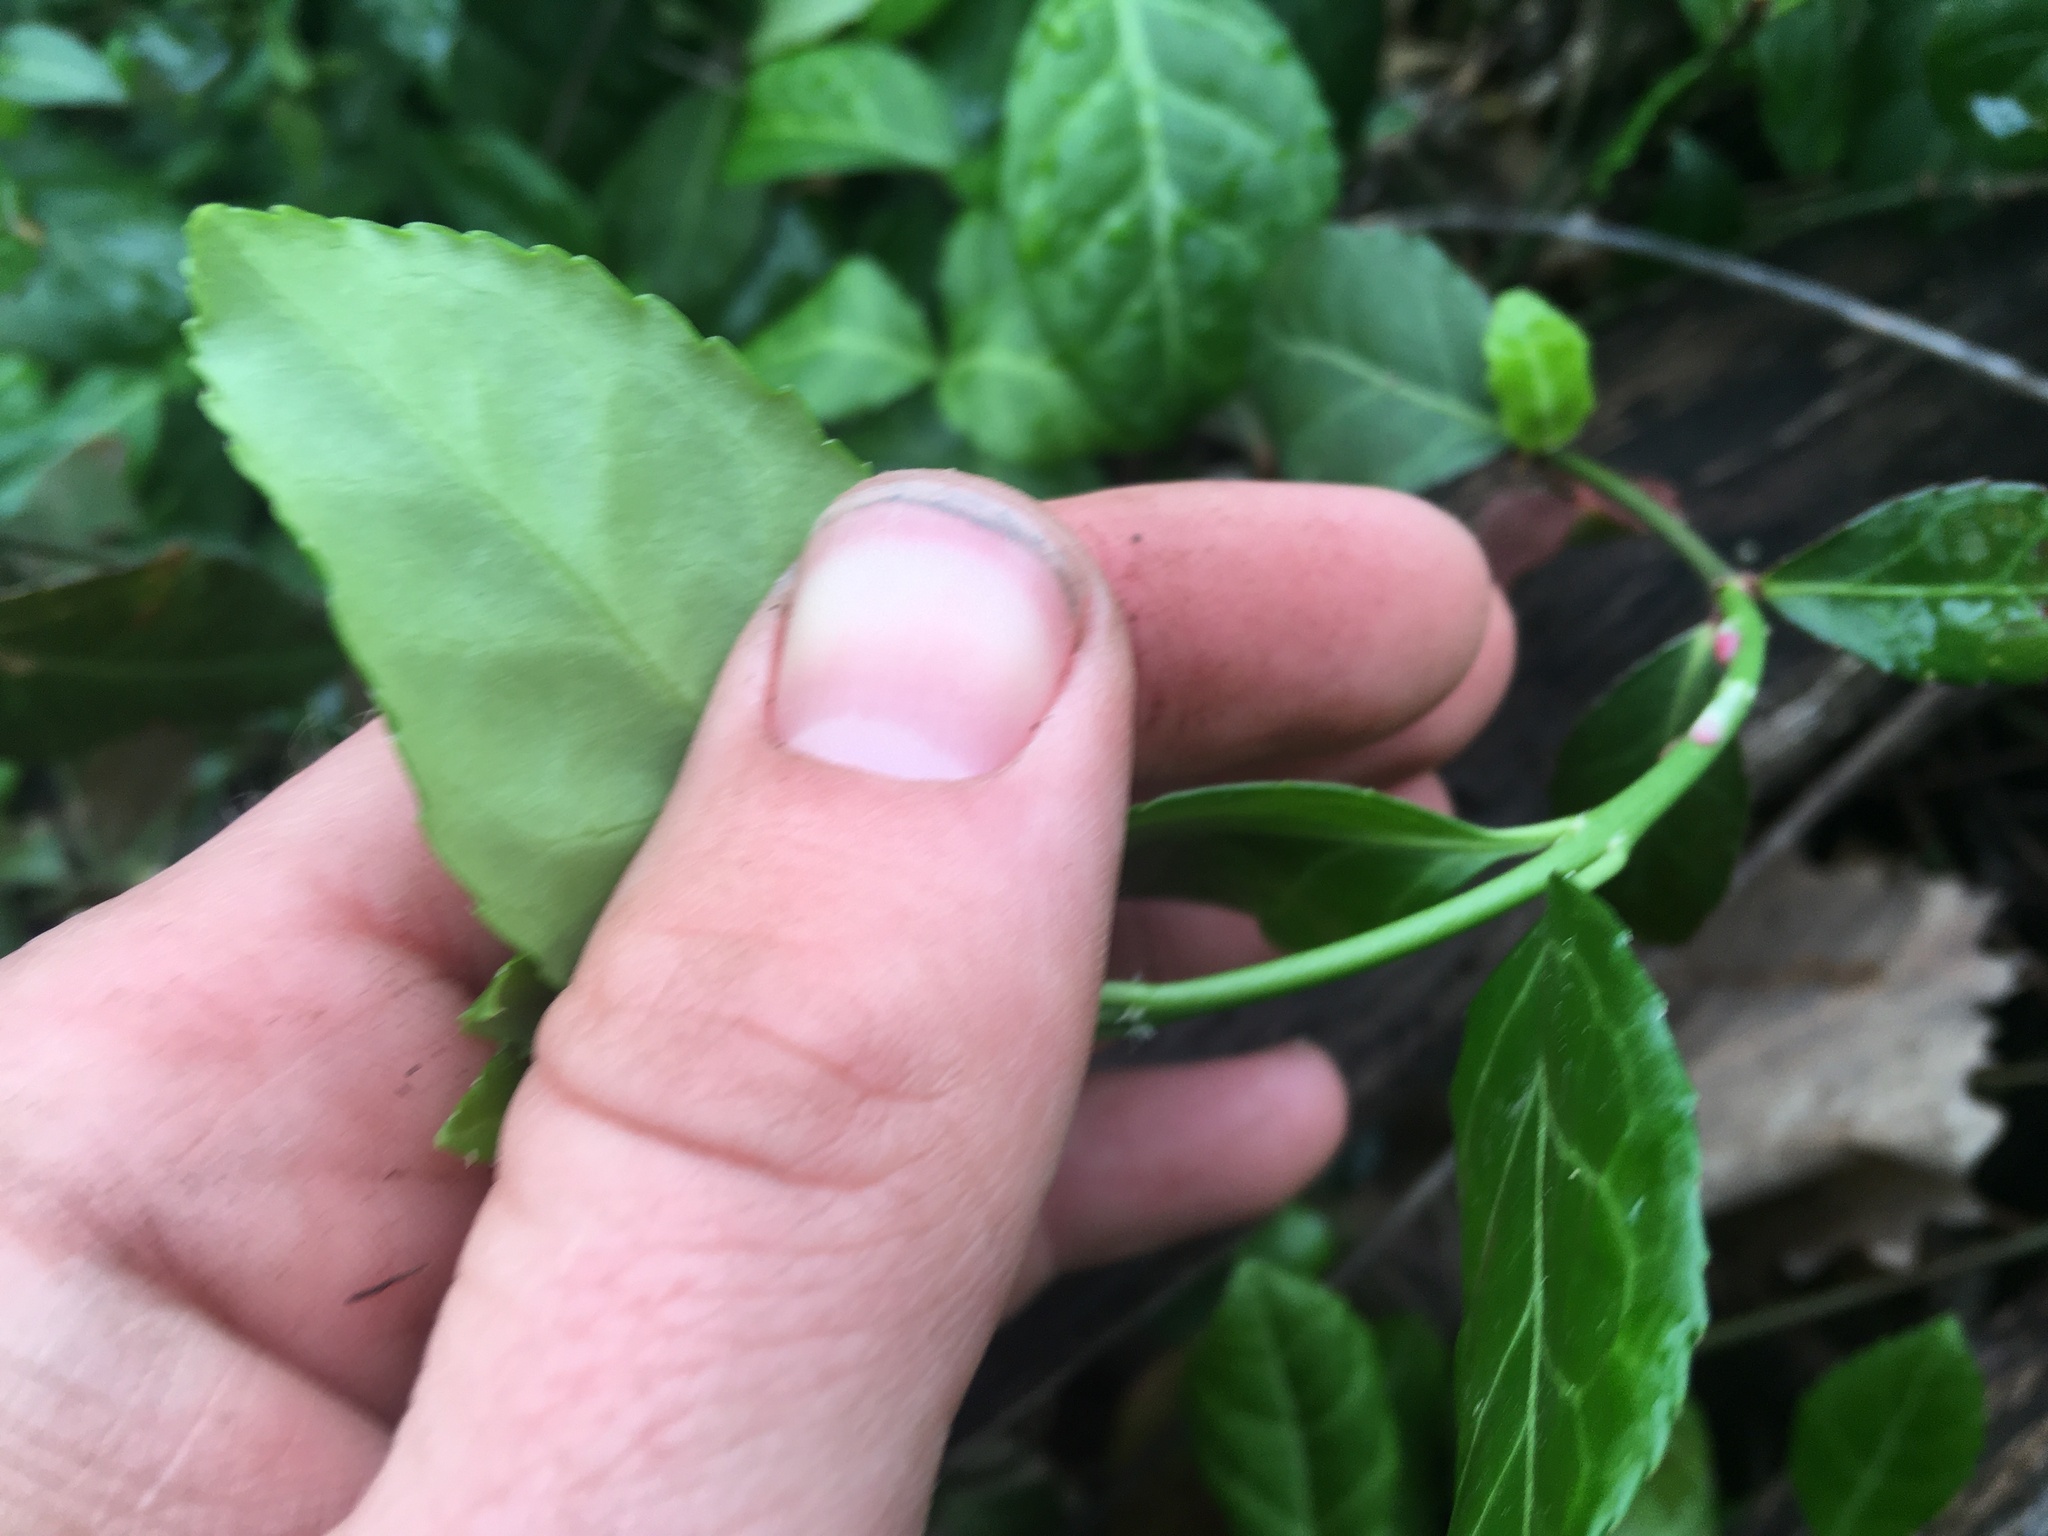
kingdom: Plantae
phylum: Tracheophyta
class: Magnoliopsida
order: Celastrales
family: Celastraceae
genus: Euonymus
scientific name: Euonymus fortunei
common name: Climbing euonymus
